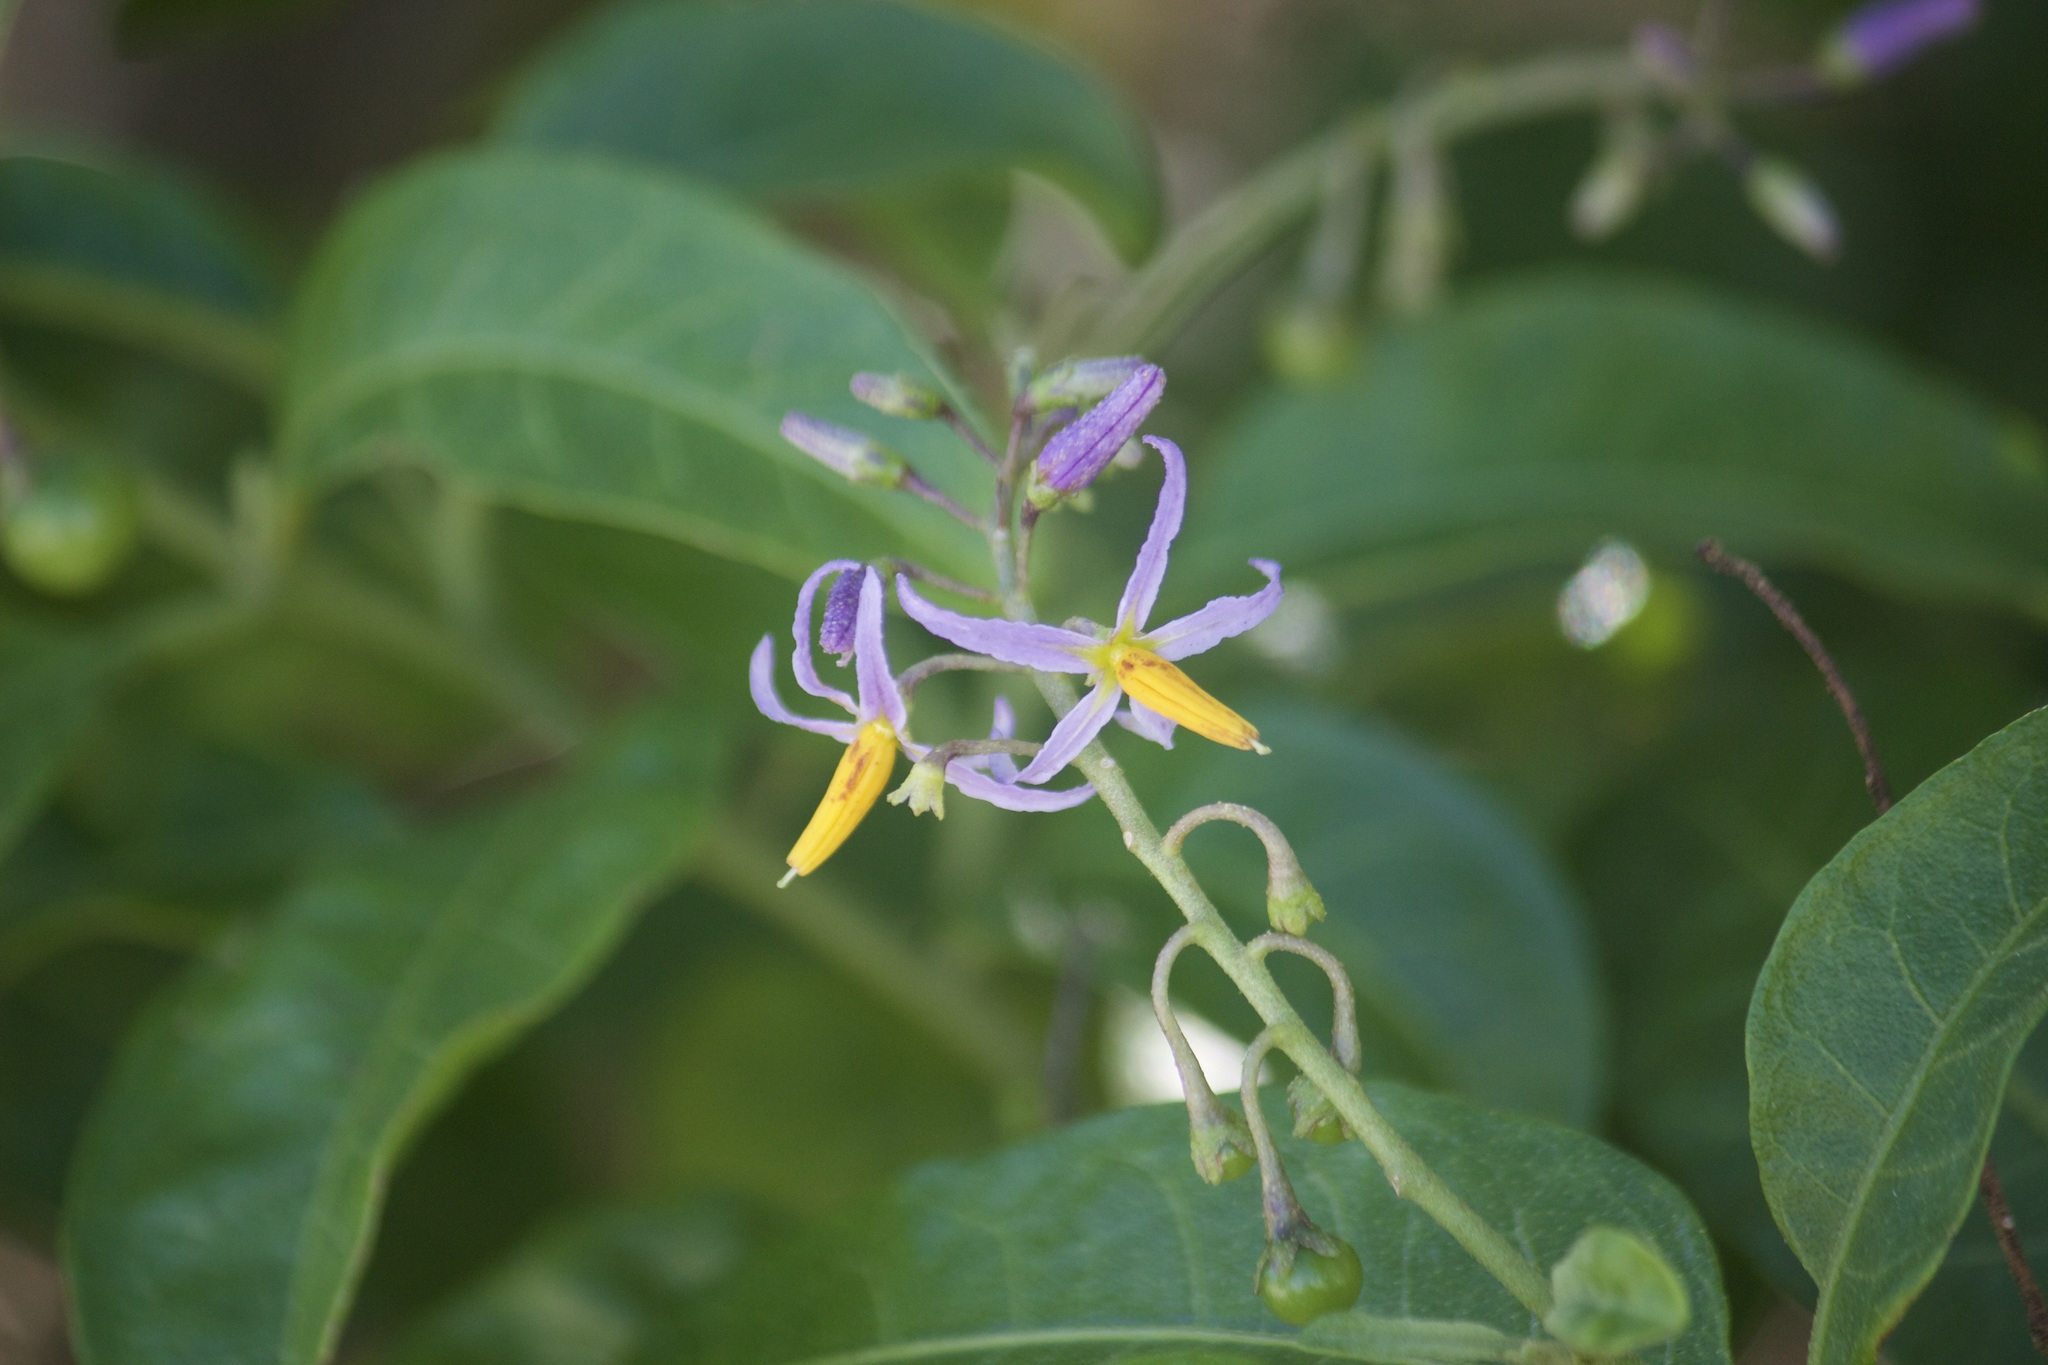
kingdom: Plantae
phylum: Tracheophyta
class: Magnoliopsida
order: Solanales
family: Solanaceae
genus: Solanum
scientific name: Solanum bahamense
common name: Canker-berry
